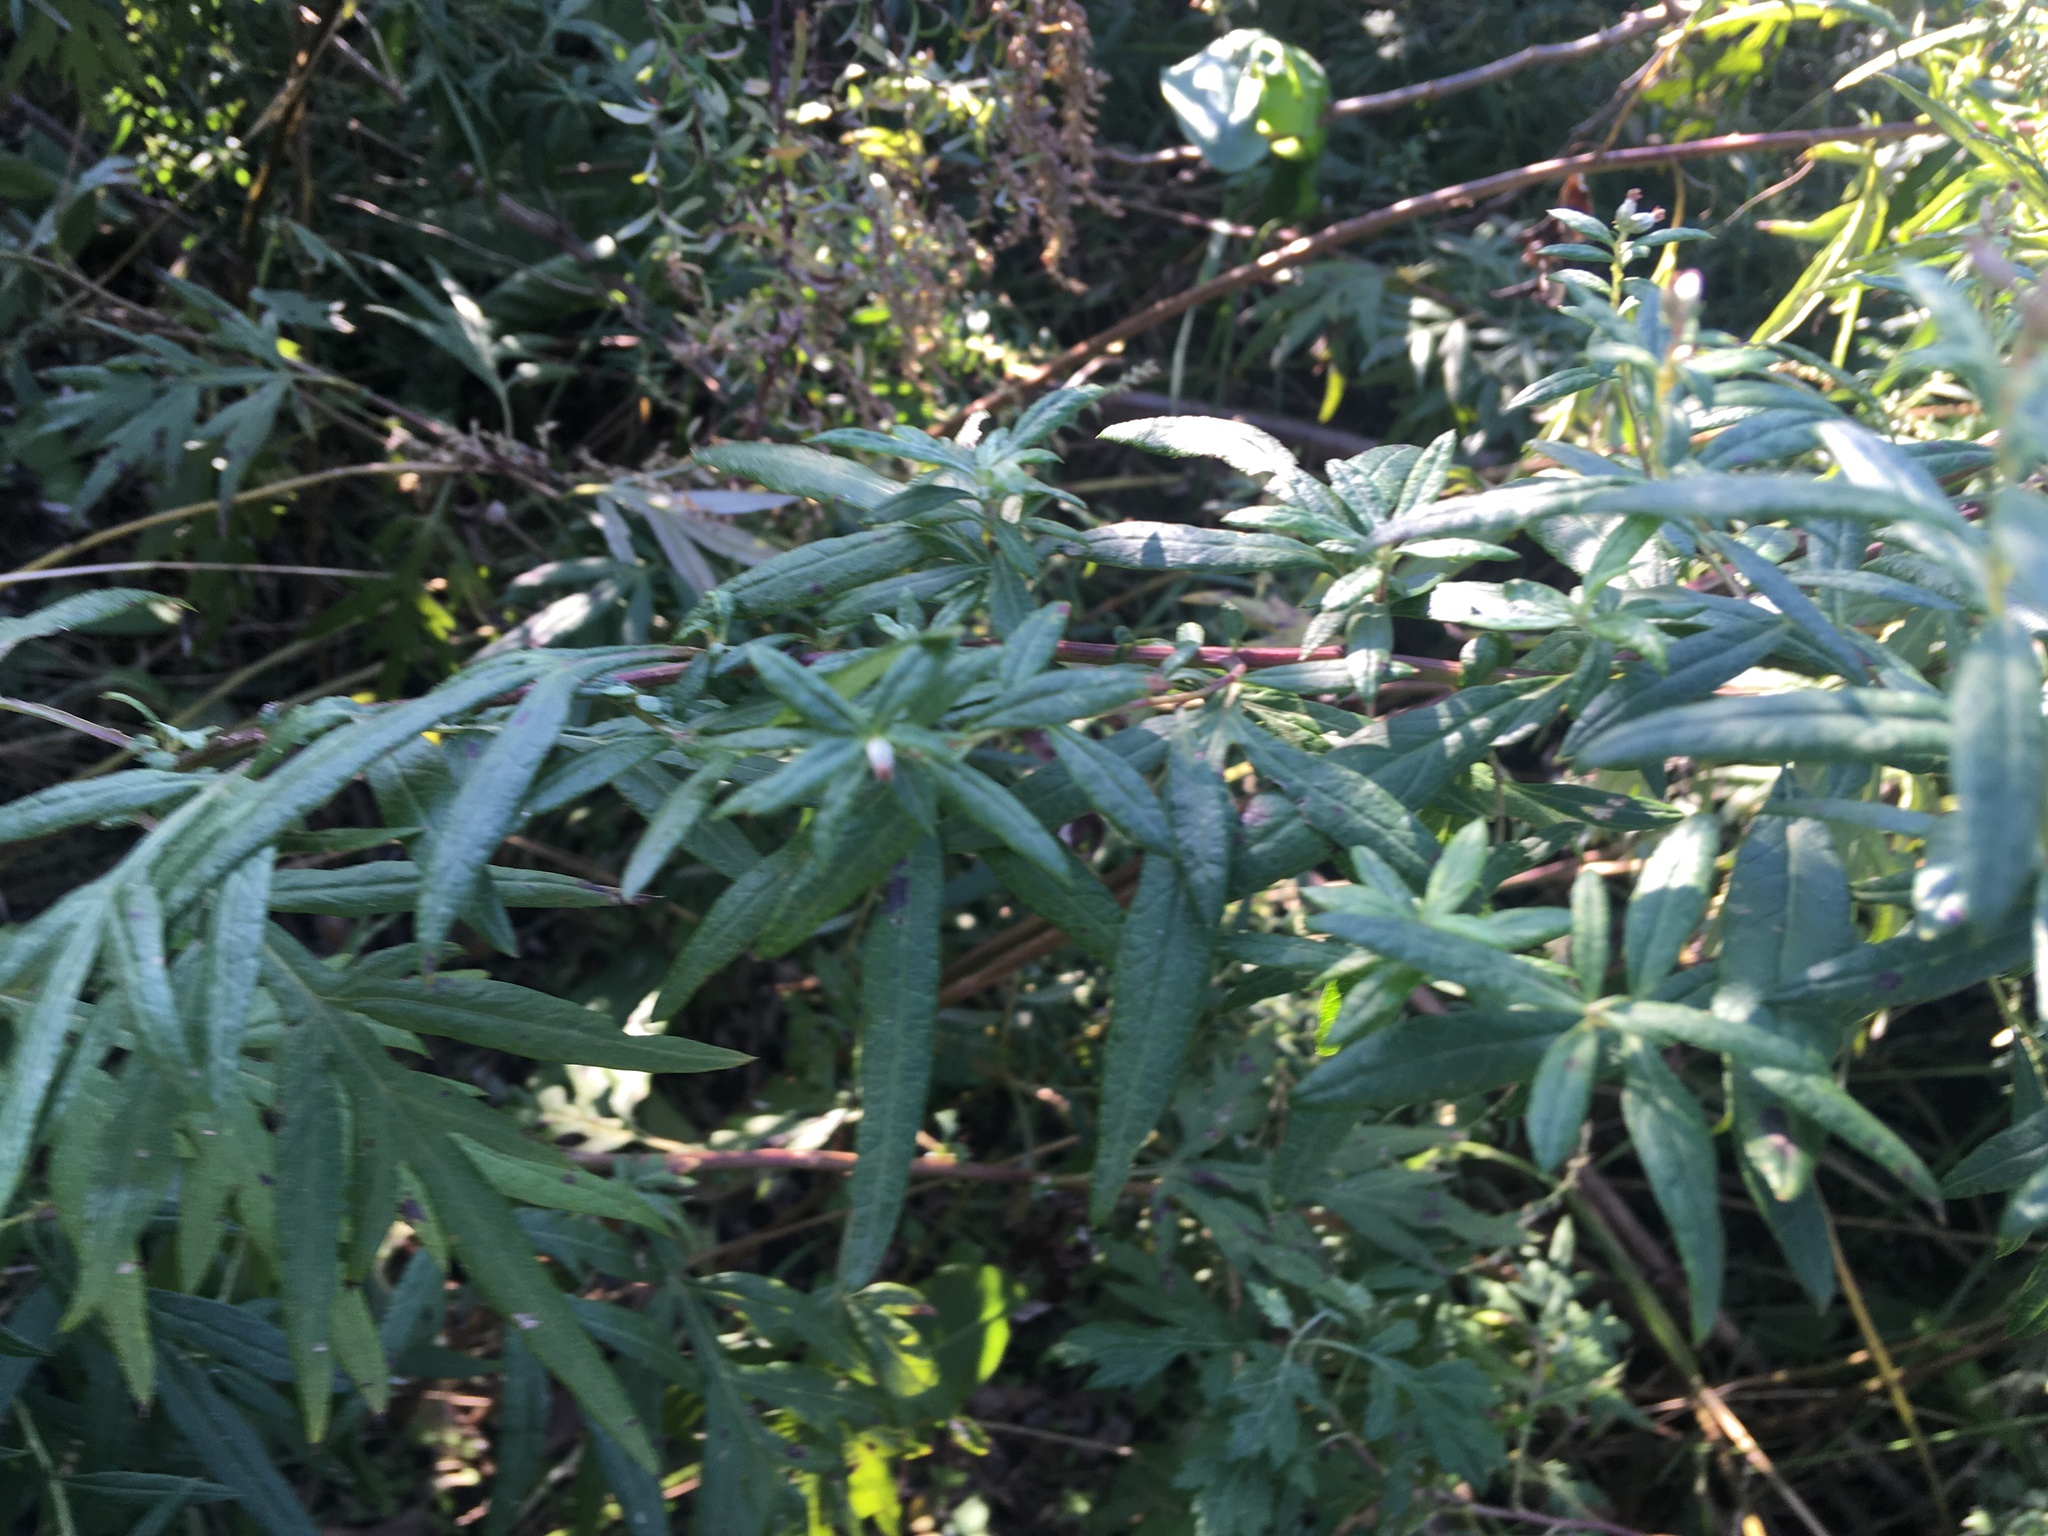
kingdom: Plantae
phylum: Tracheophyta
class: Magnoliopsida
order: Asterales
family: Asteraceae
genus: Artemisia
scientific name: Artemisia vulgaris
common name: Mugwort
